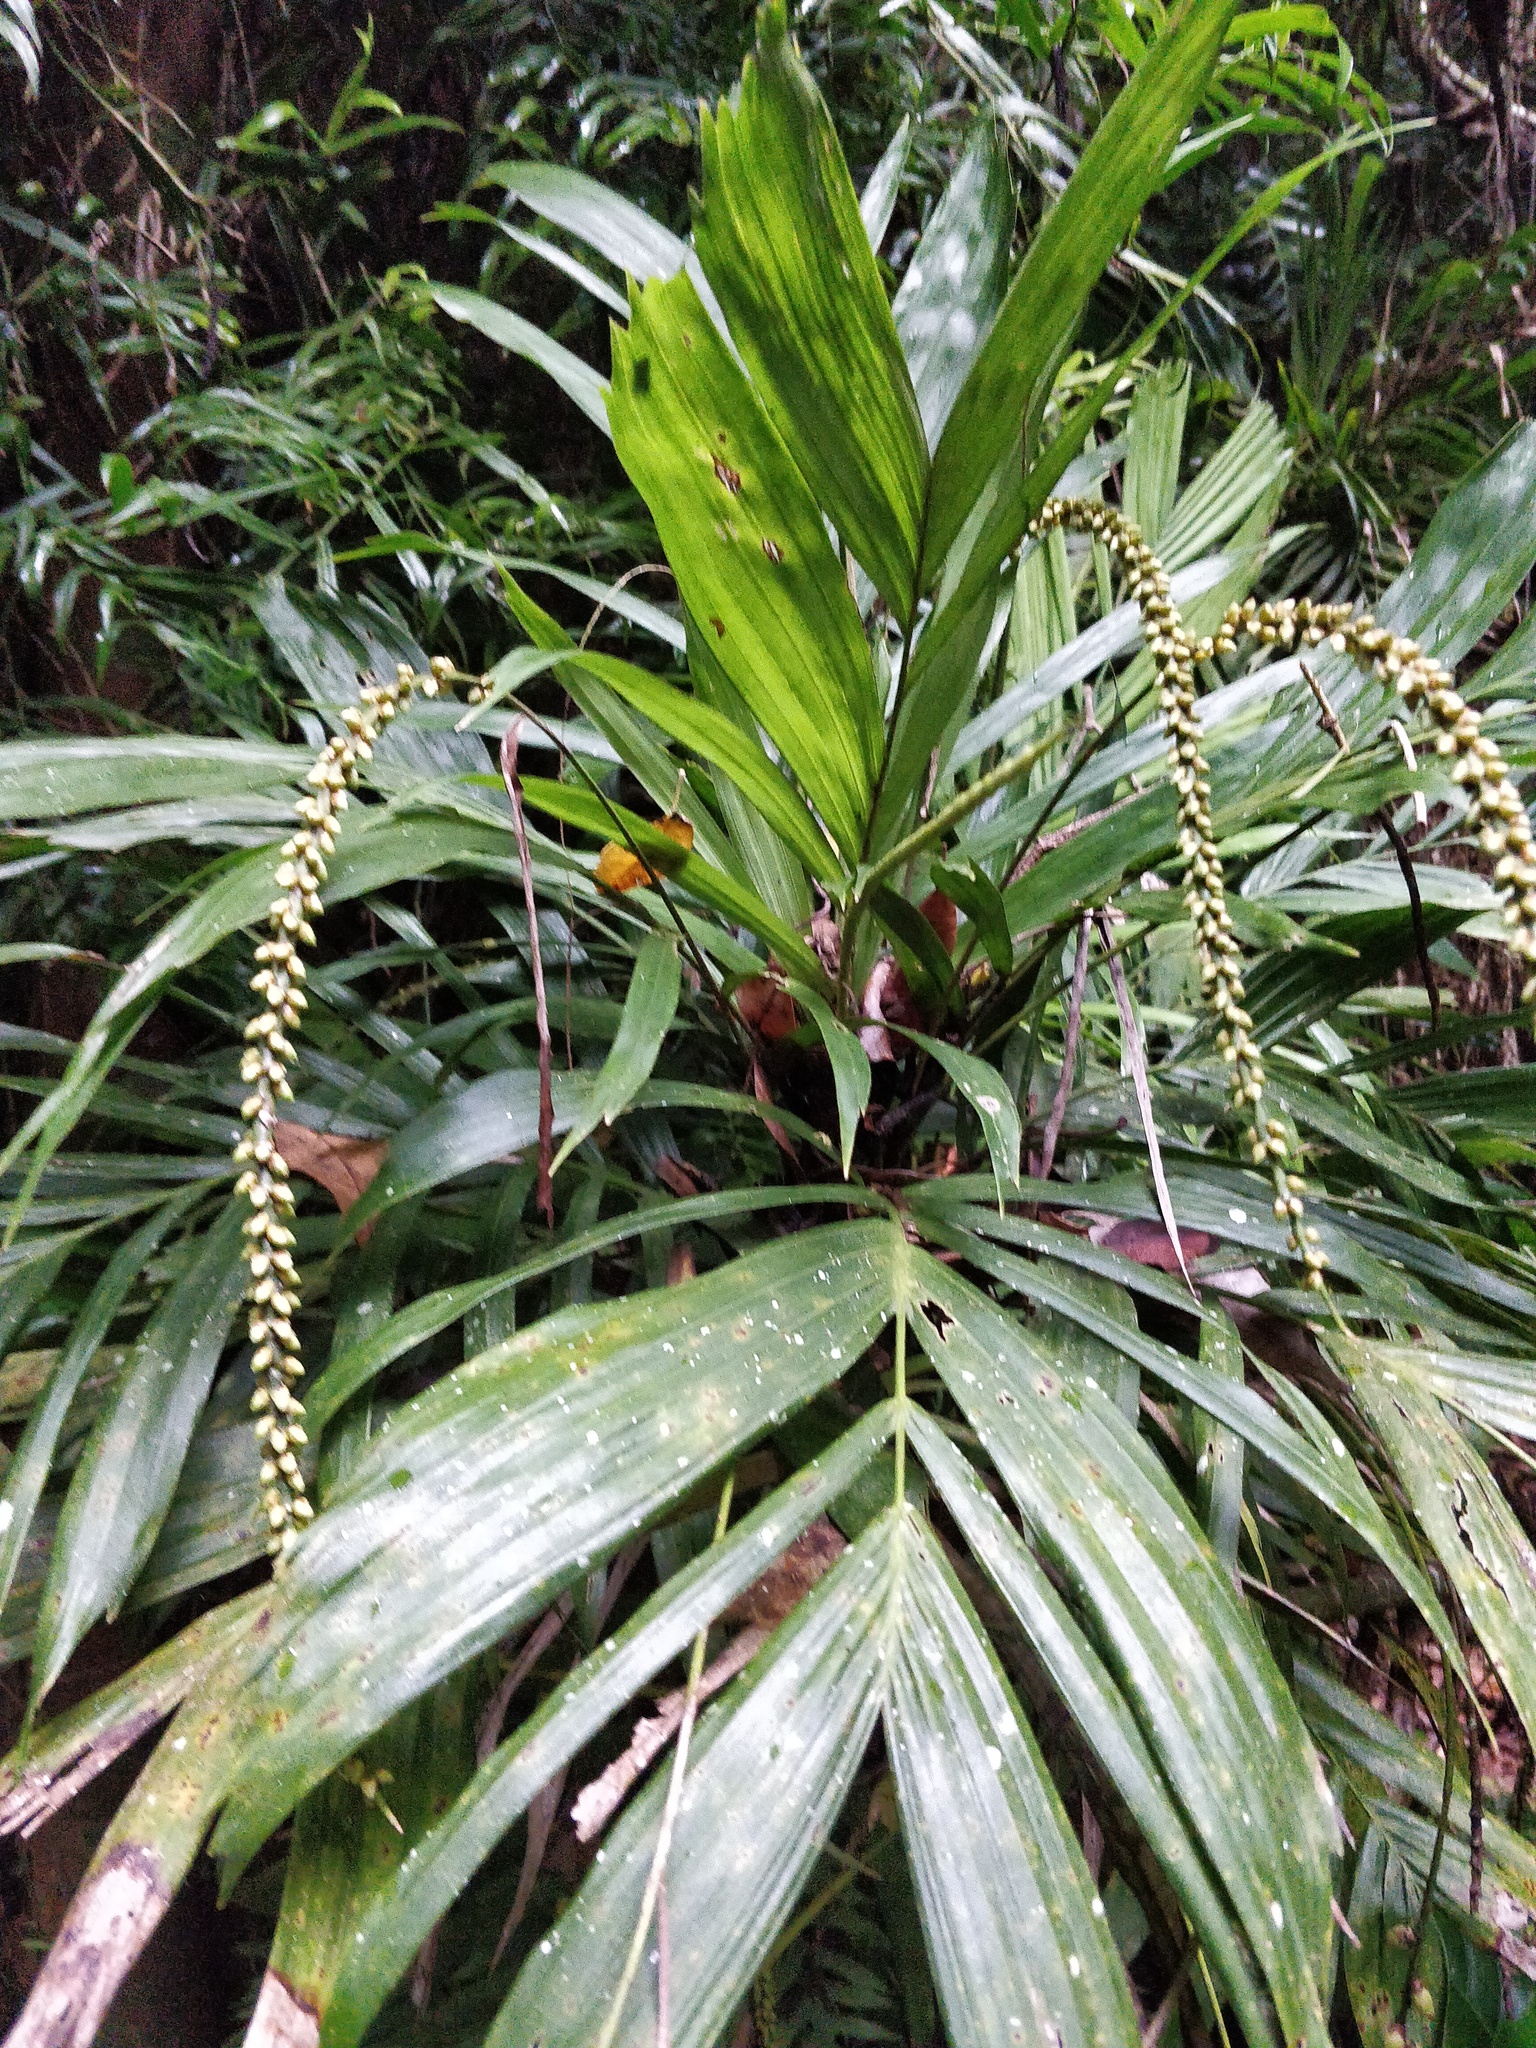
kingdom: Plantae
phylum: Tracheophyta
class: Liliopsida
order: Arecales
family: Arecaceae
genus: Linospadix
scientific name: Linospadix monostachyus
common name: Walking-stick palm
